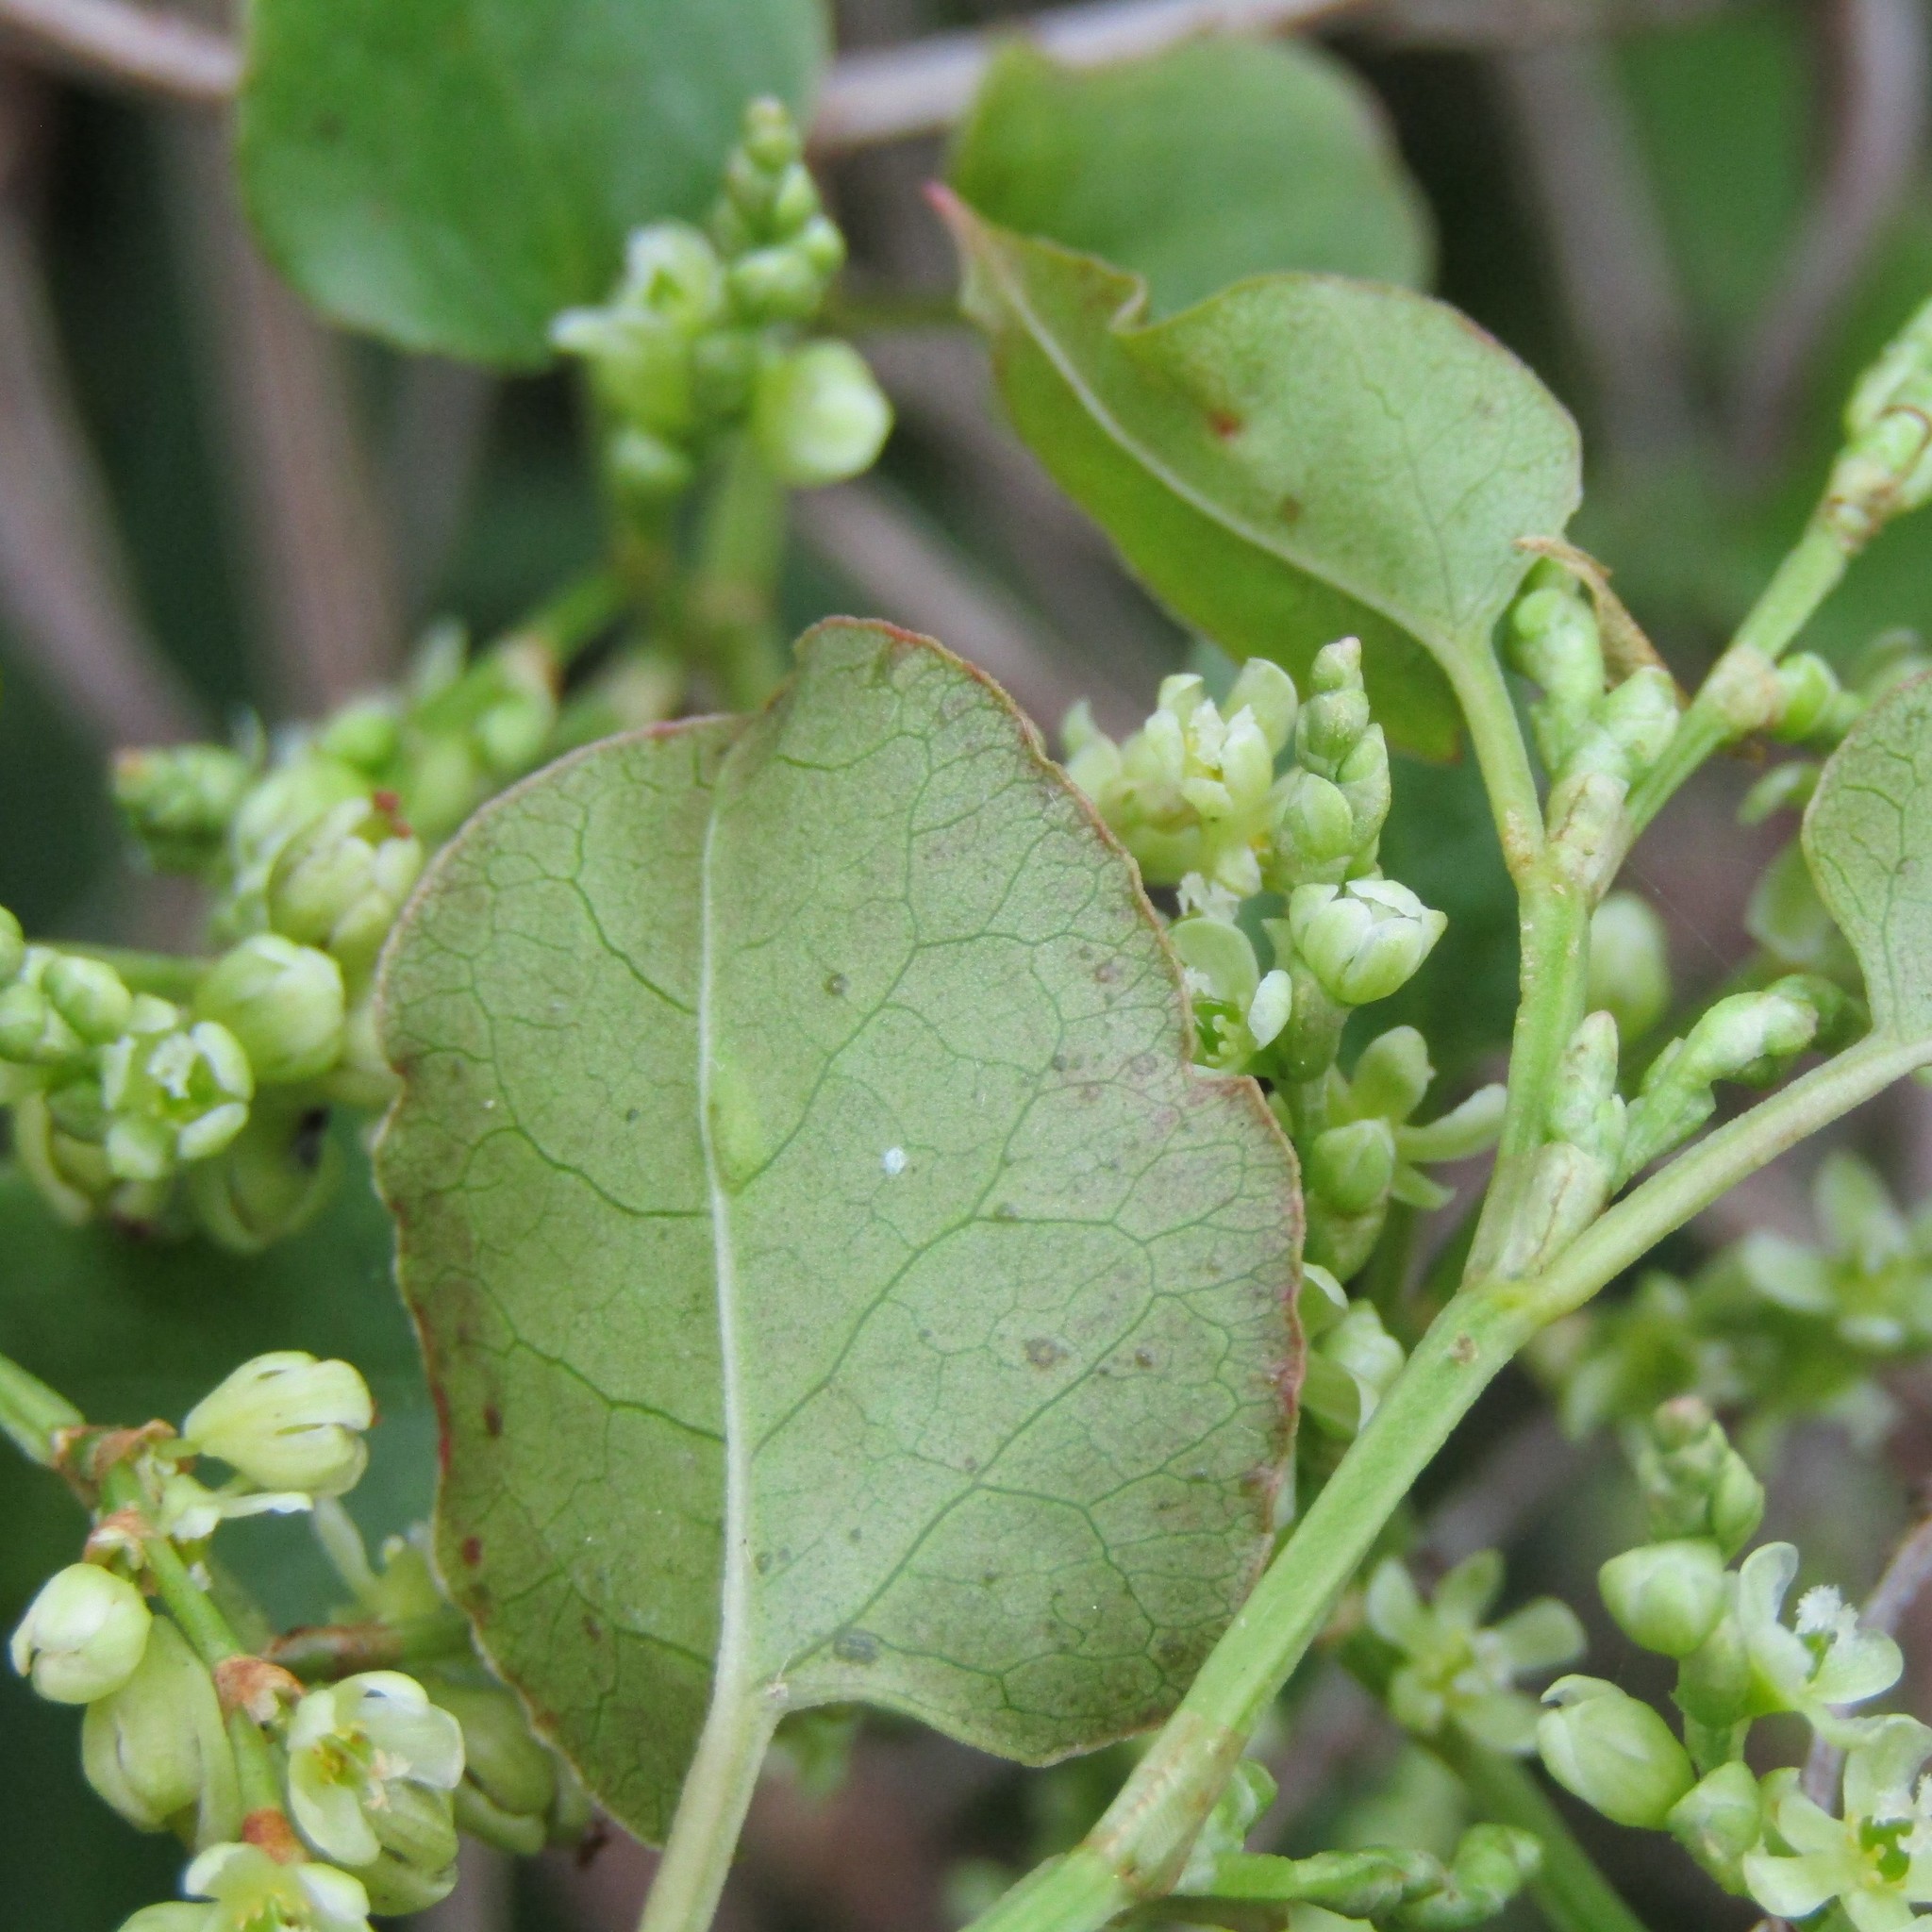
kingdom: Plantae
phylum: Tracheophyta
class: Magnoliopsida
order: Caryophyllales
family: Polygonaceae
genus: Muehlenbeckia
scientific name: Muehlenbeckia australis
